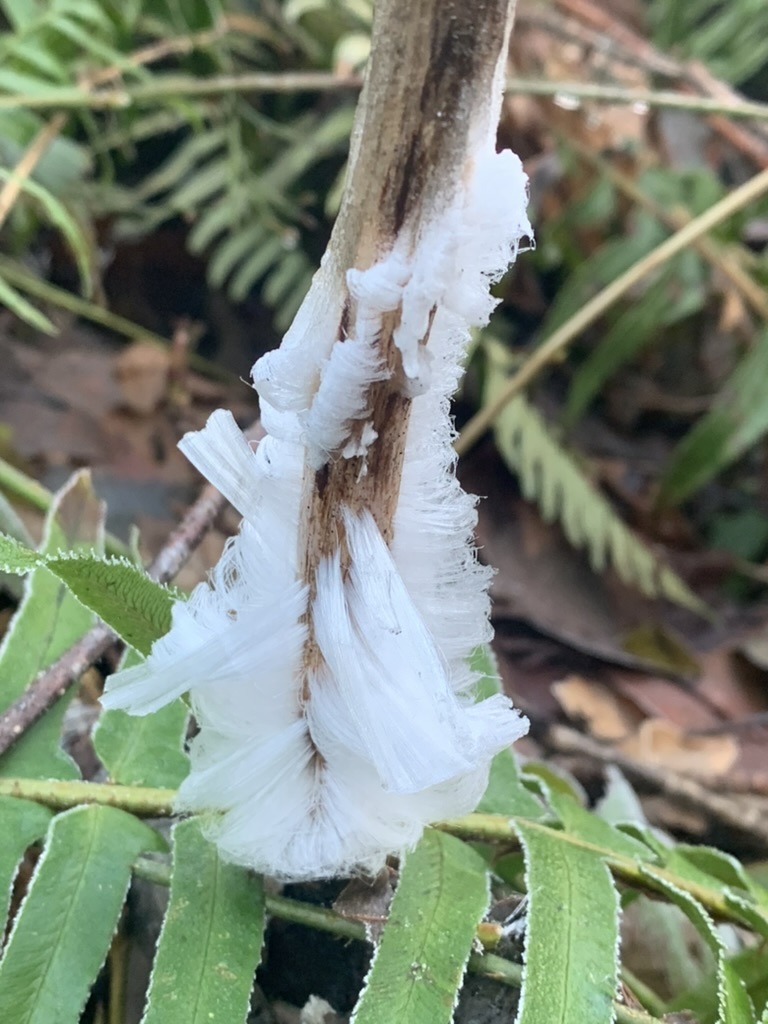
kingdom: Fungi
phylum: Basidiomycota
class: Agaricomycetes
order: Auriculariales
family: Auriculariaceae
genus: Exidiopsis
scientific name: Exidiopsis effusa
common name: Hair ice crust
